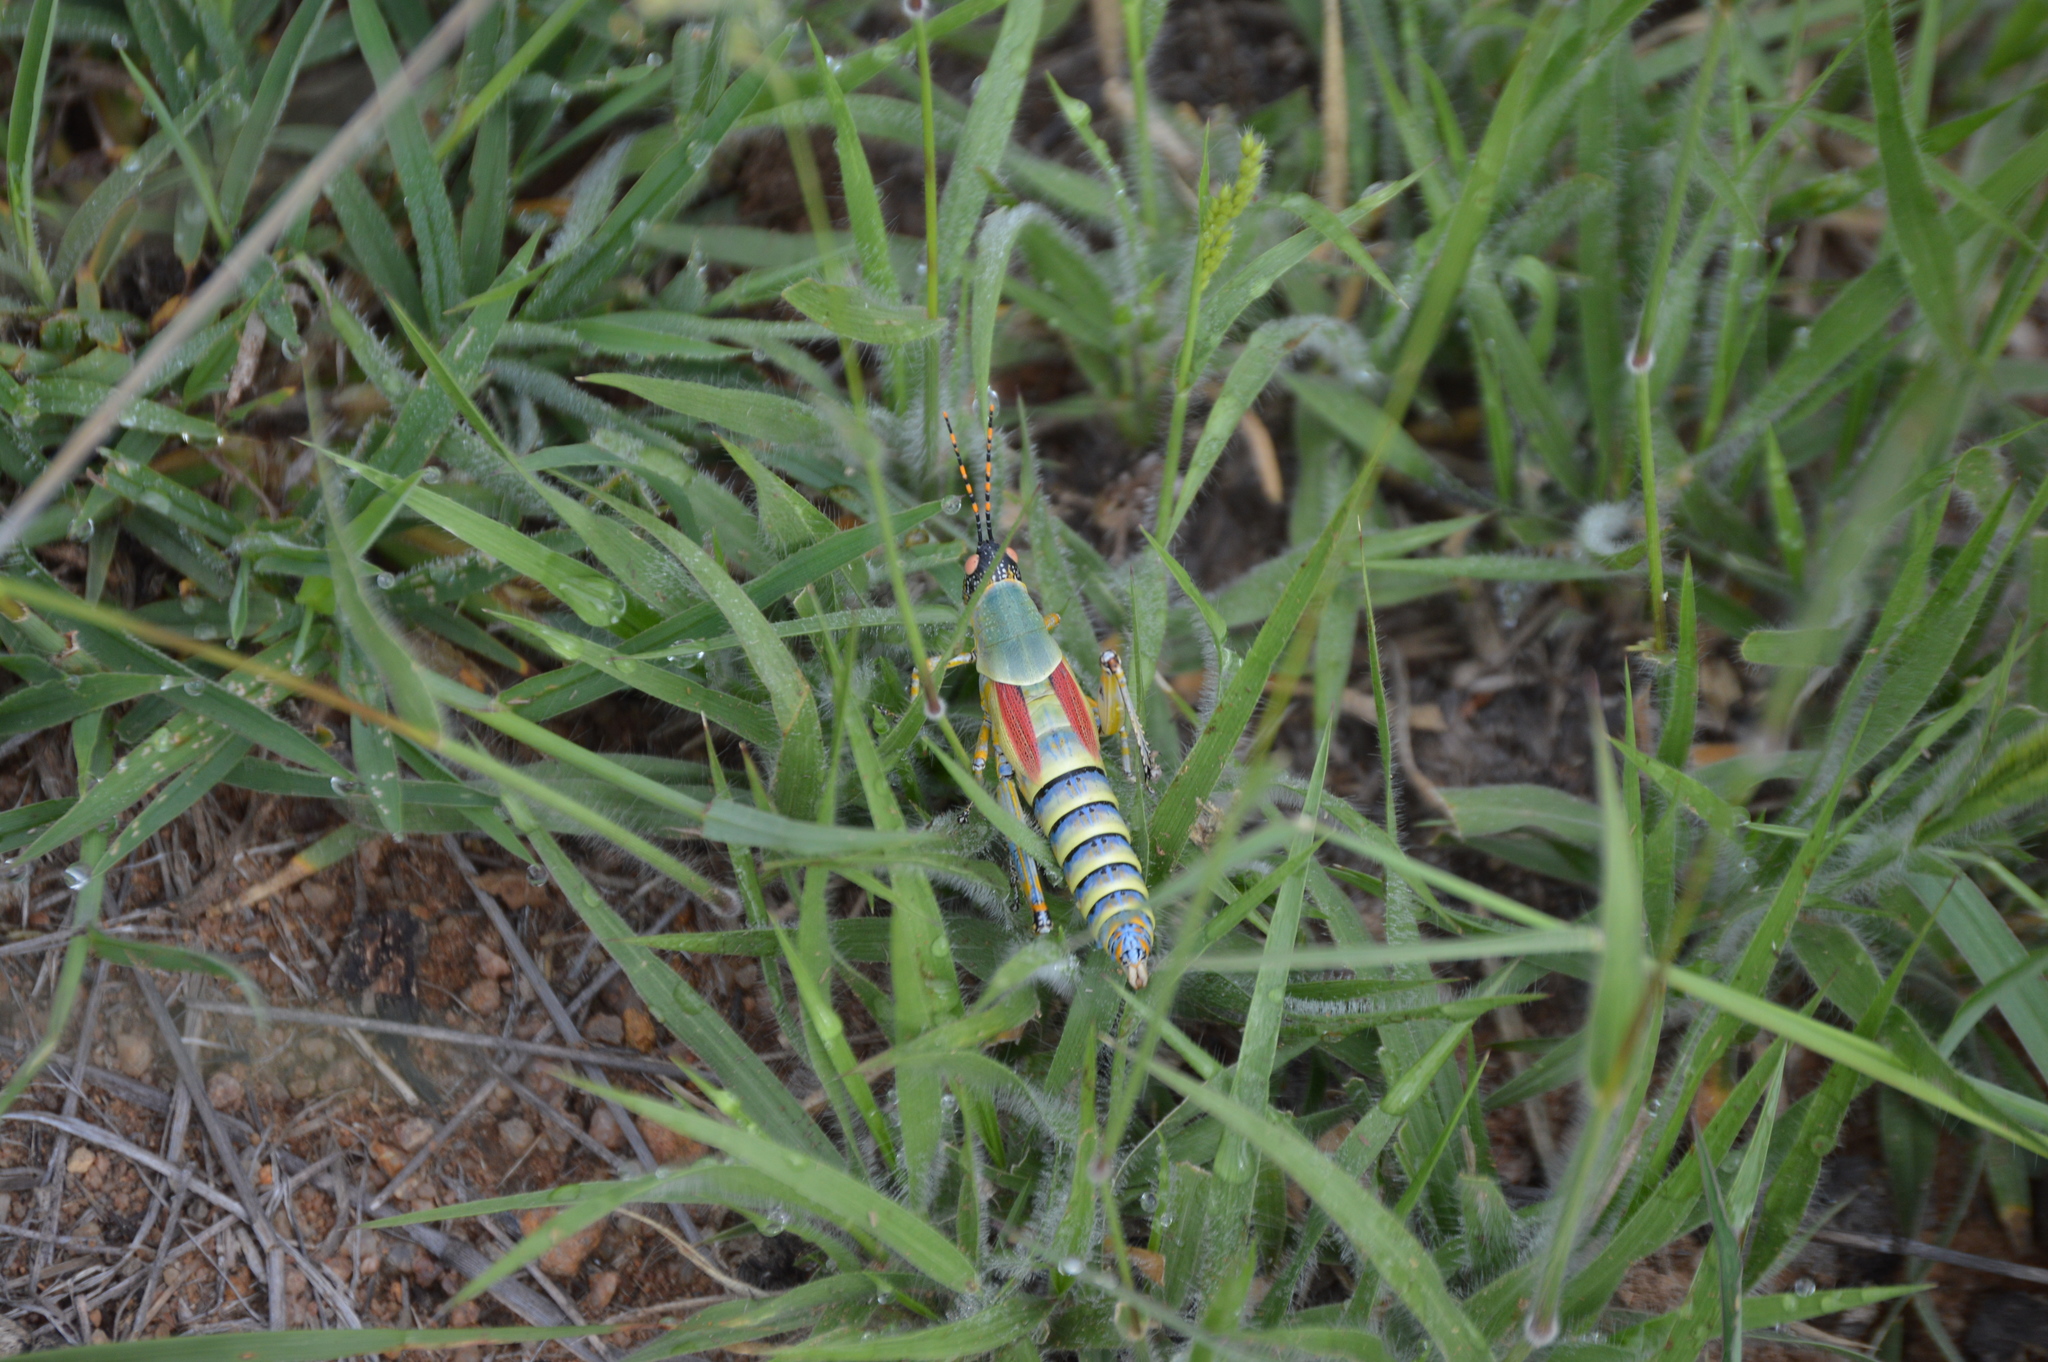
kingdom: Animalia
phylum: Arthropoda
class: Insecta
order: Orthoptera
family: Pyrgomorphidae
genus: Zonocerus
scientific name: Zonocerus elegans
